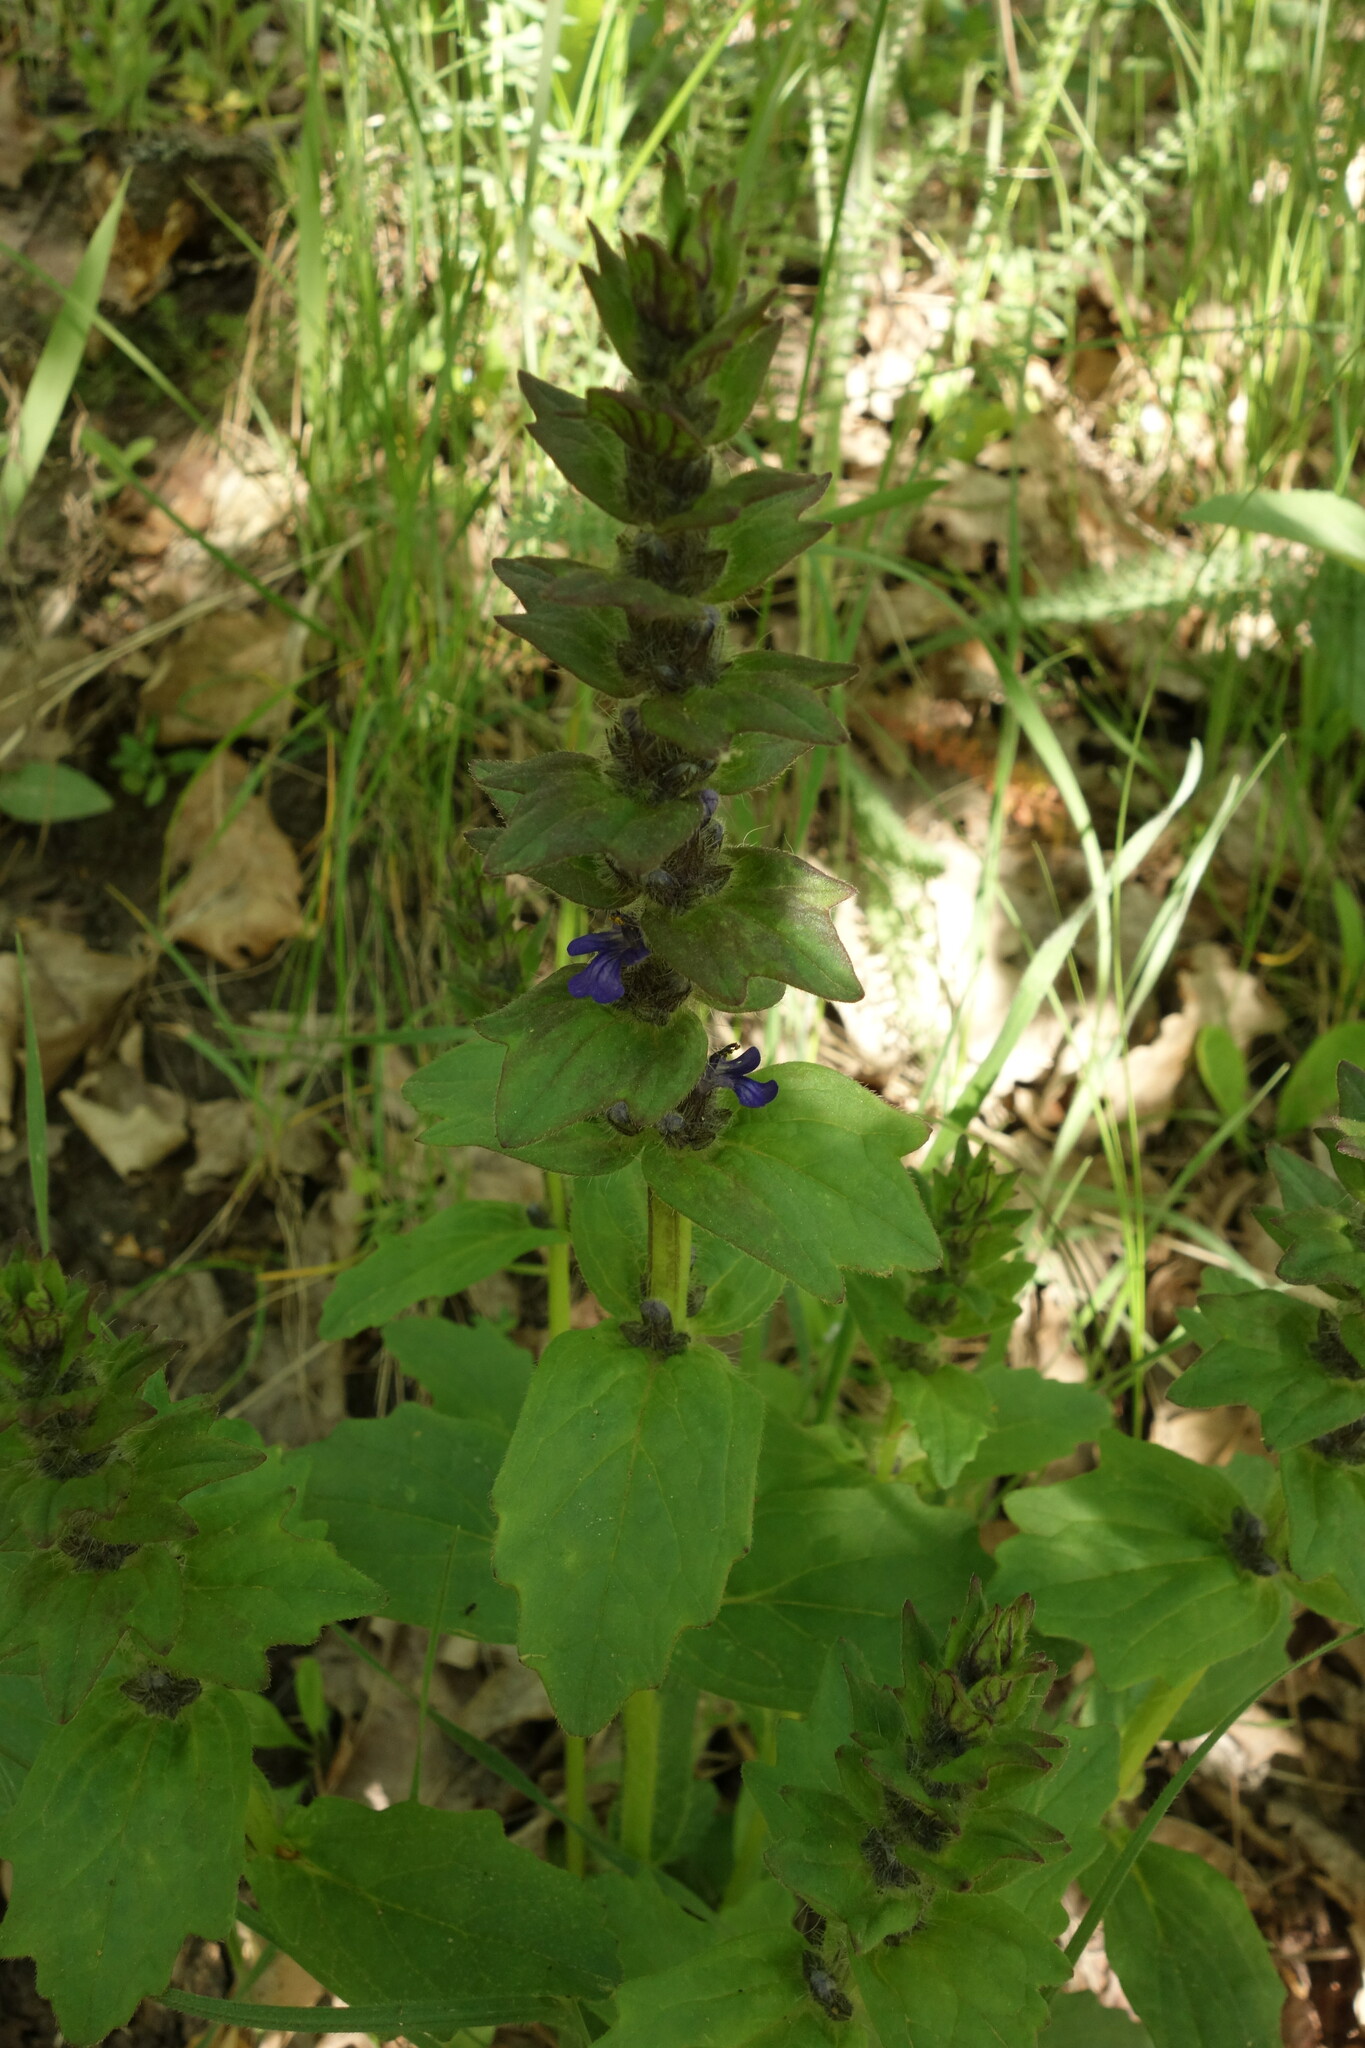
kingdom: Plantae
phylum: Tracheophyta
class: Magnoliopsida
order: Lamiales
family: Lamiaceae
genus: Ajuga
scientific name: Ajuga genevensis
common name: Blue bugle
